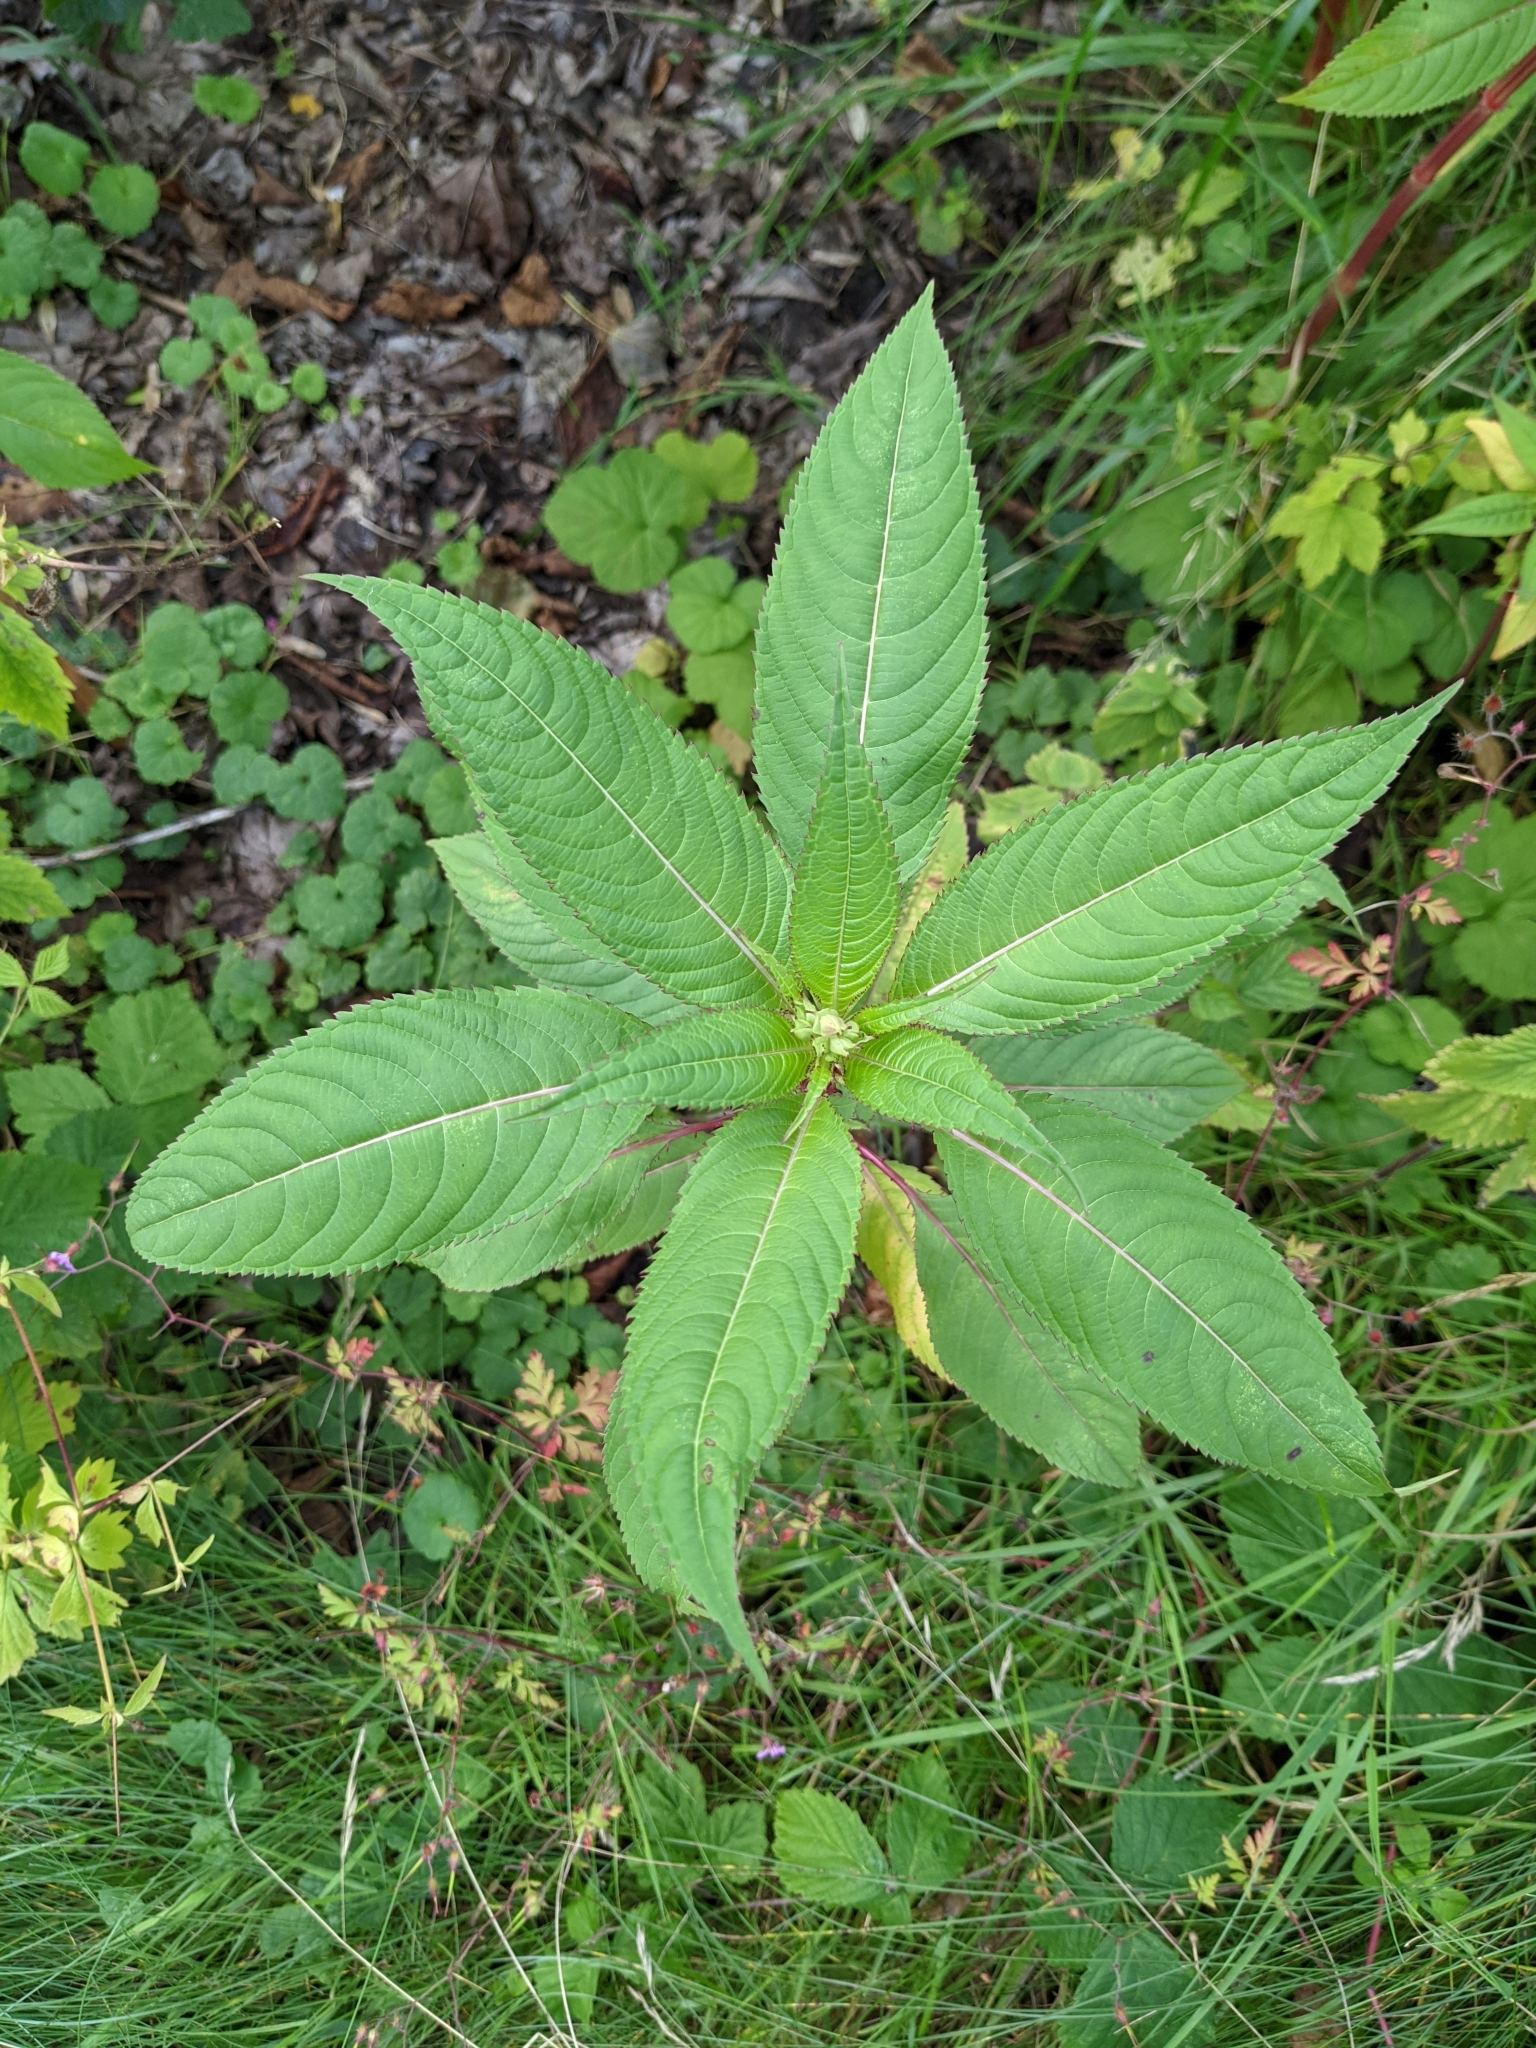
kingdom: Plantae
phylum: Tracheophyta
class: Magnoliopsida
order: Ericales
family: Balsaminaceae
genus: Impatiens
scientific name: Impatiens glandulifera
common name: Himalayan balsam
